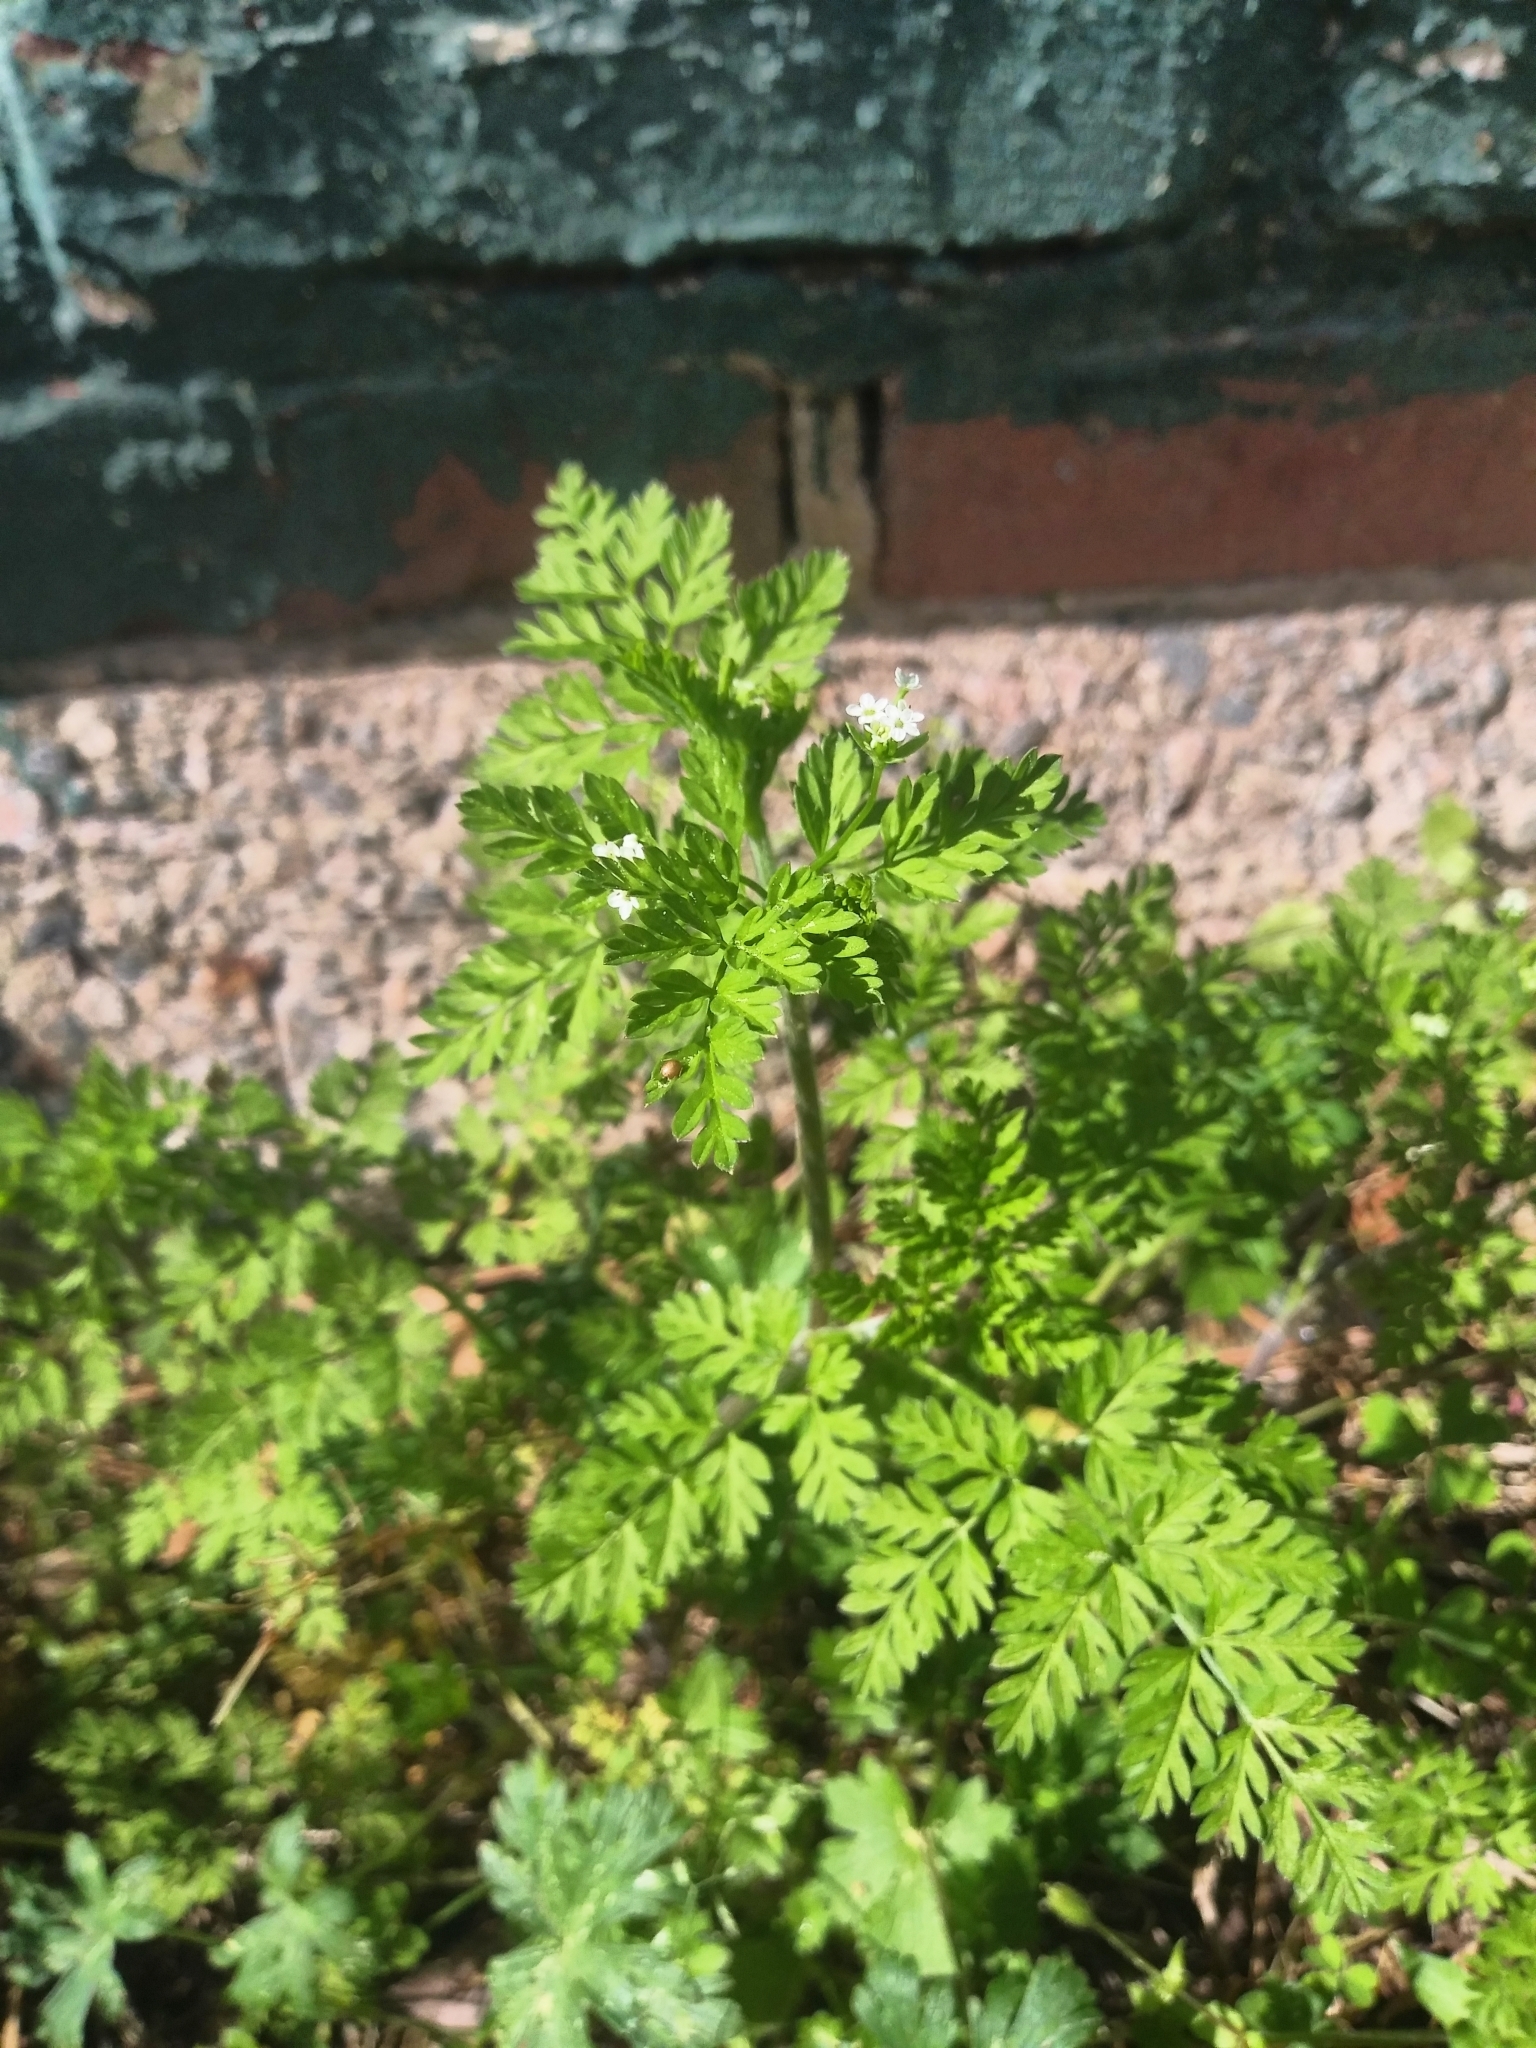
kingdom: Plantae
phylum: Tracheophyta
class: Magnoliopsida
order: Apiales
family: Apiaceae
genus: Chaerophyllum
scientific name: Chaerophyllum tainturieri
